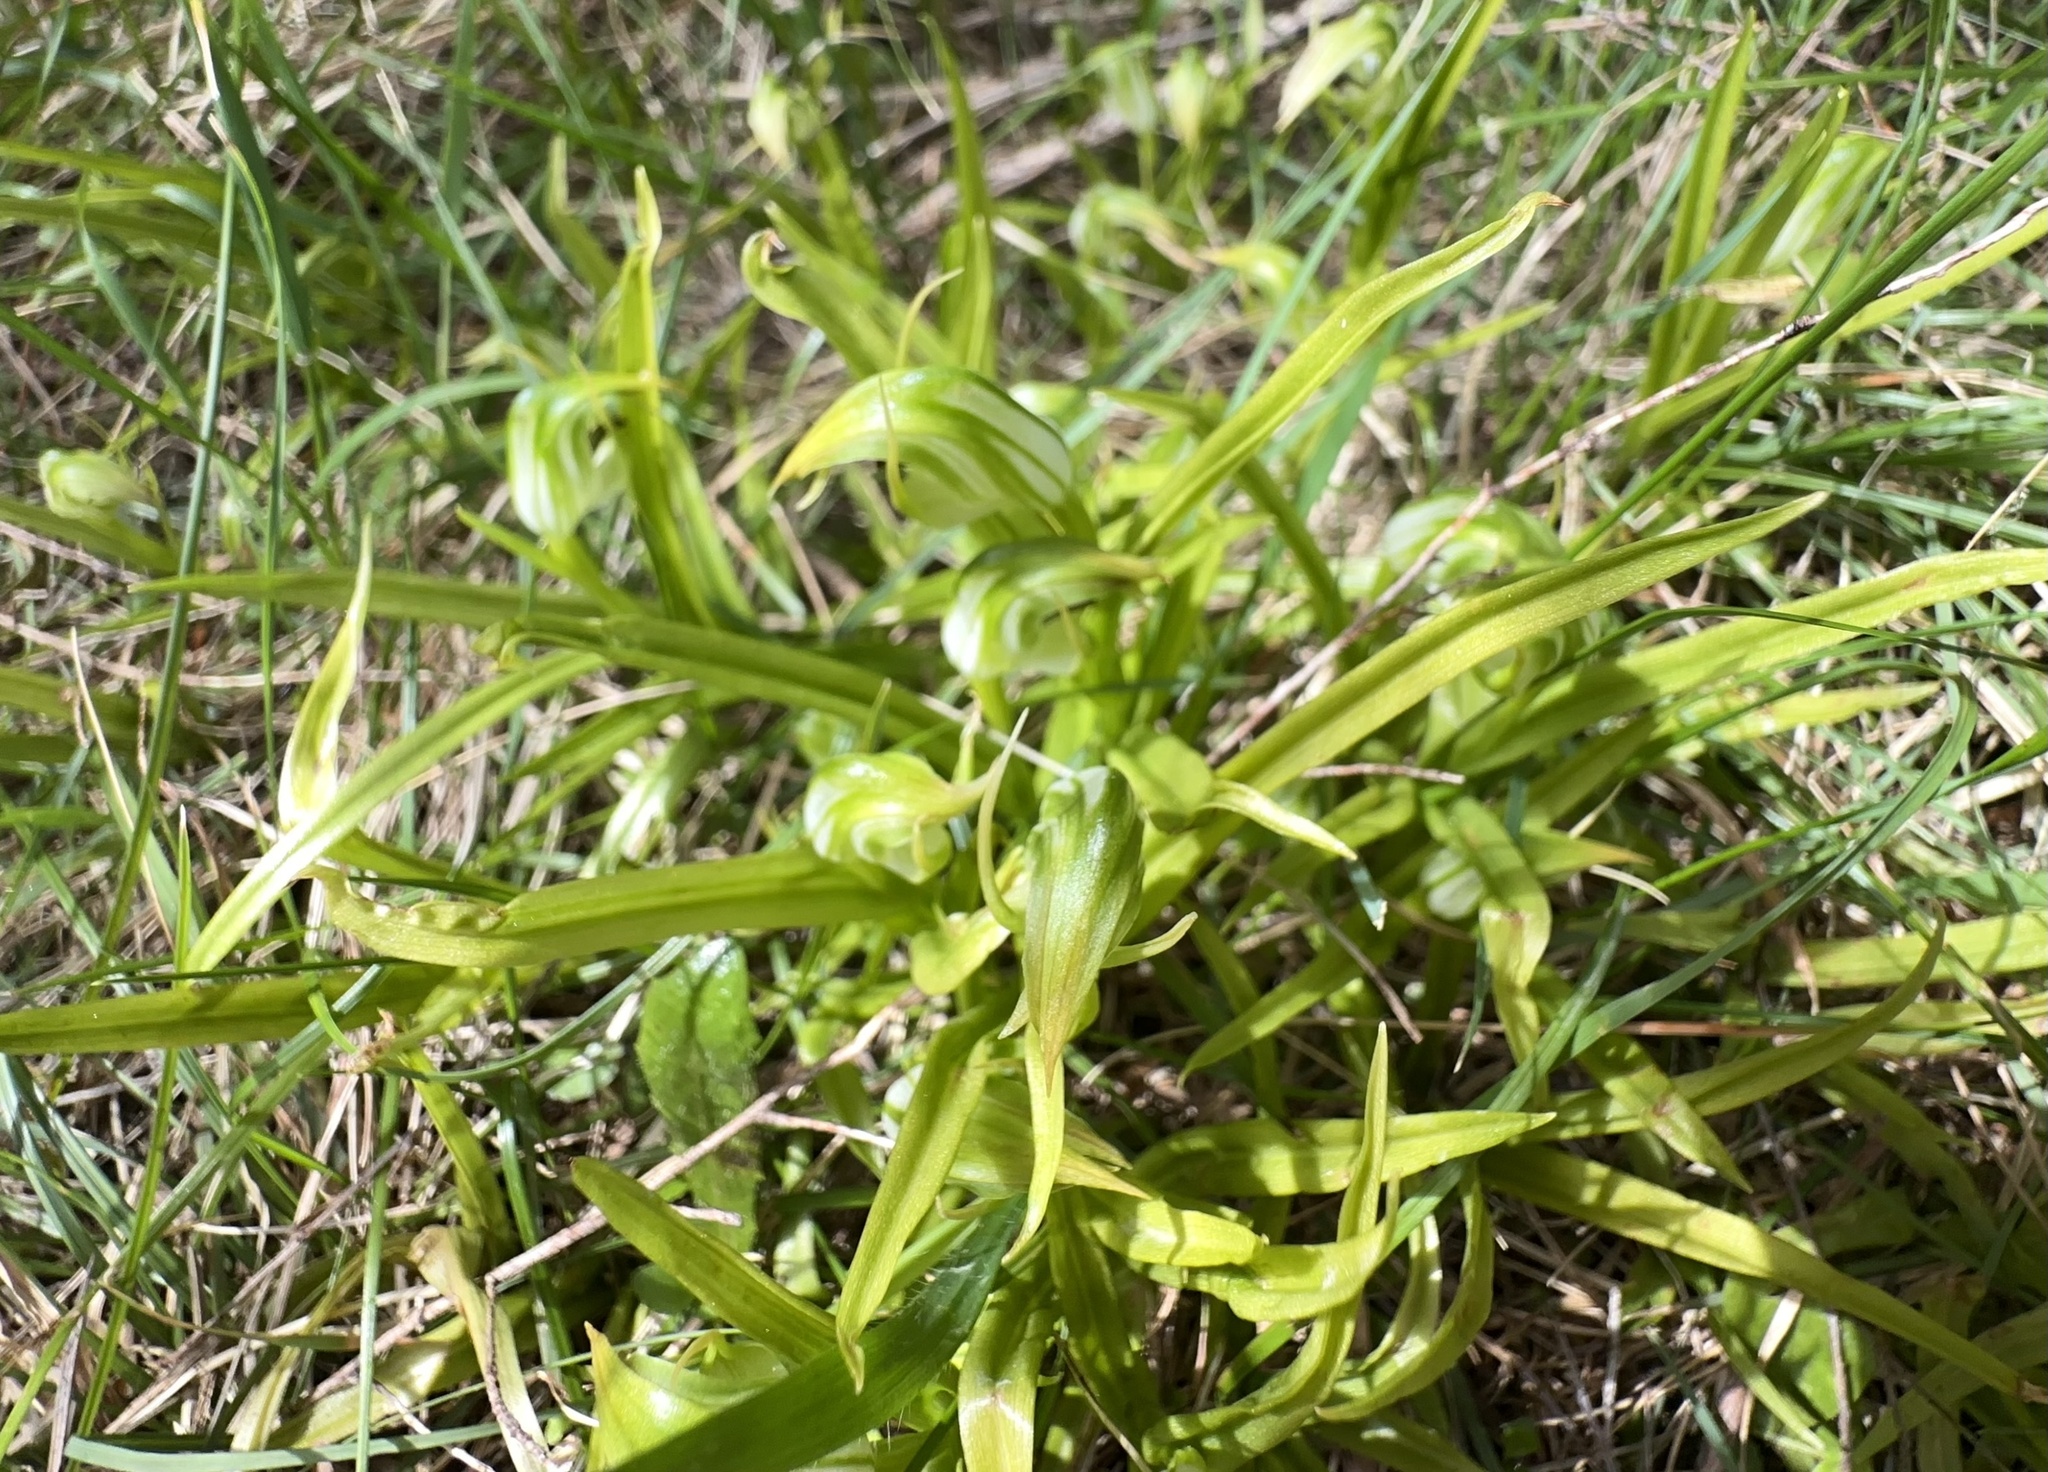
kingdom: Plantae
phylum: Tracheophyta
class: Liliopsida
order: Asparagales
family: Orchidaceae
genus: Pterostylis
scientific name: Pterostylis graminea
